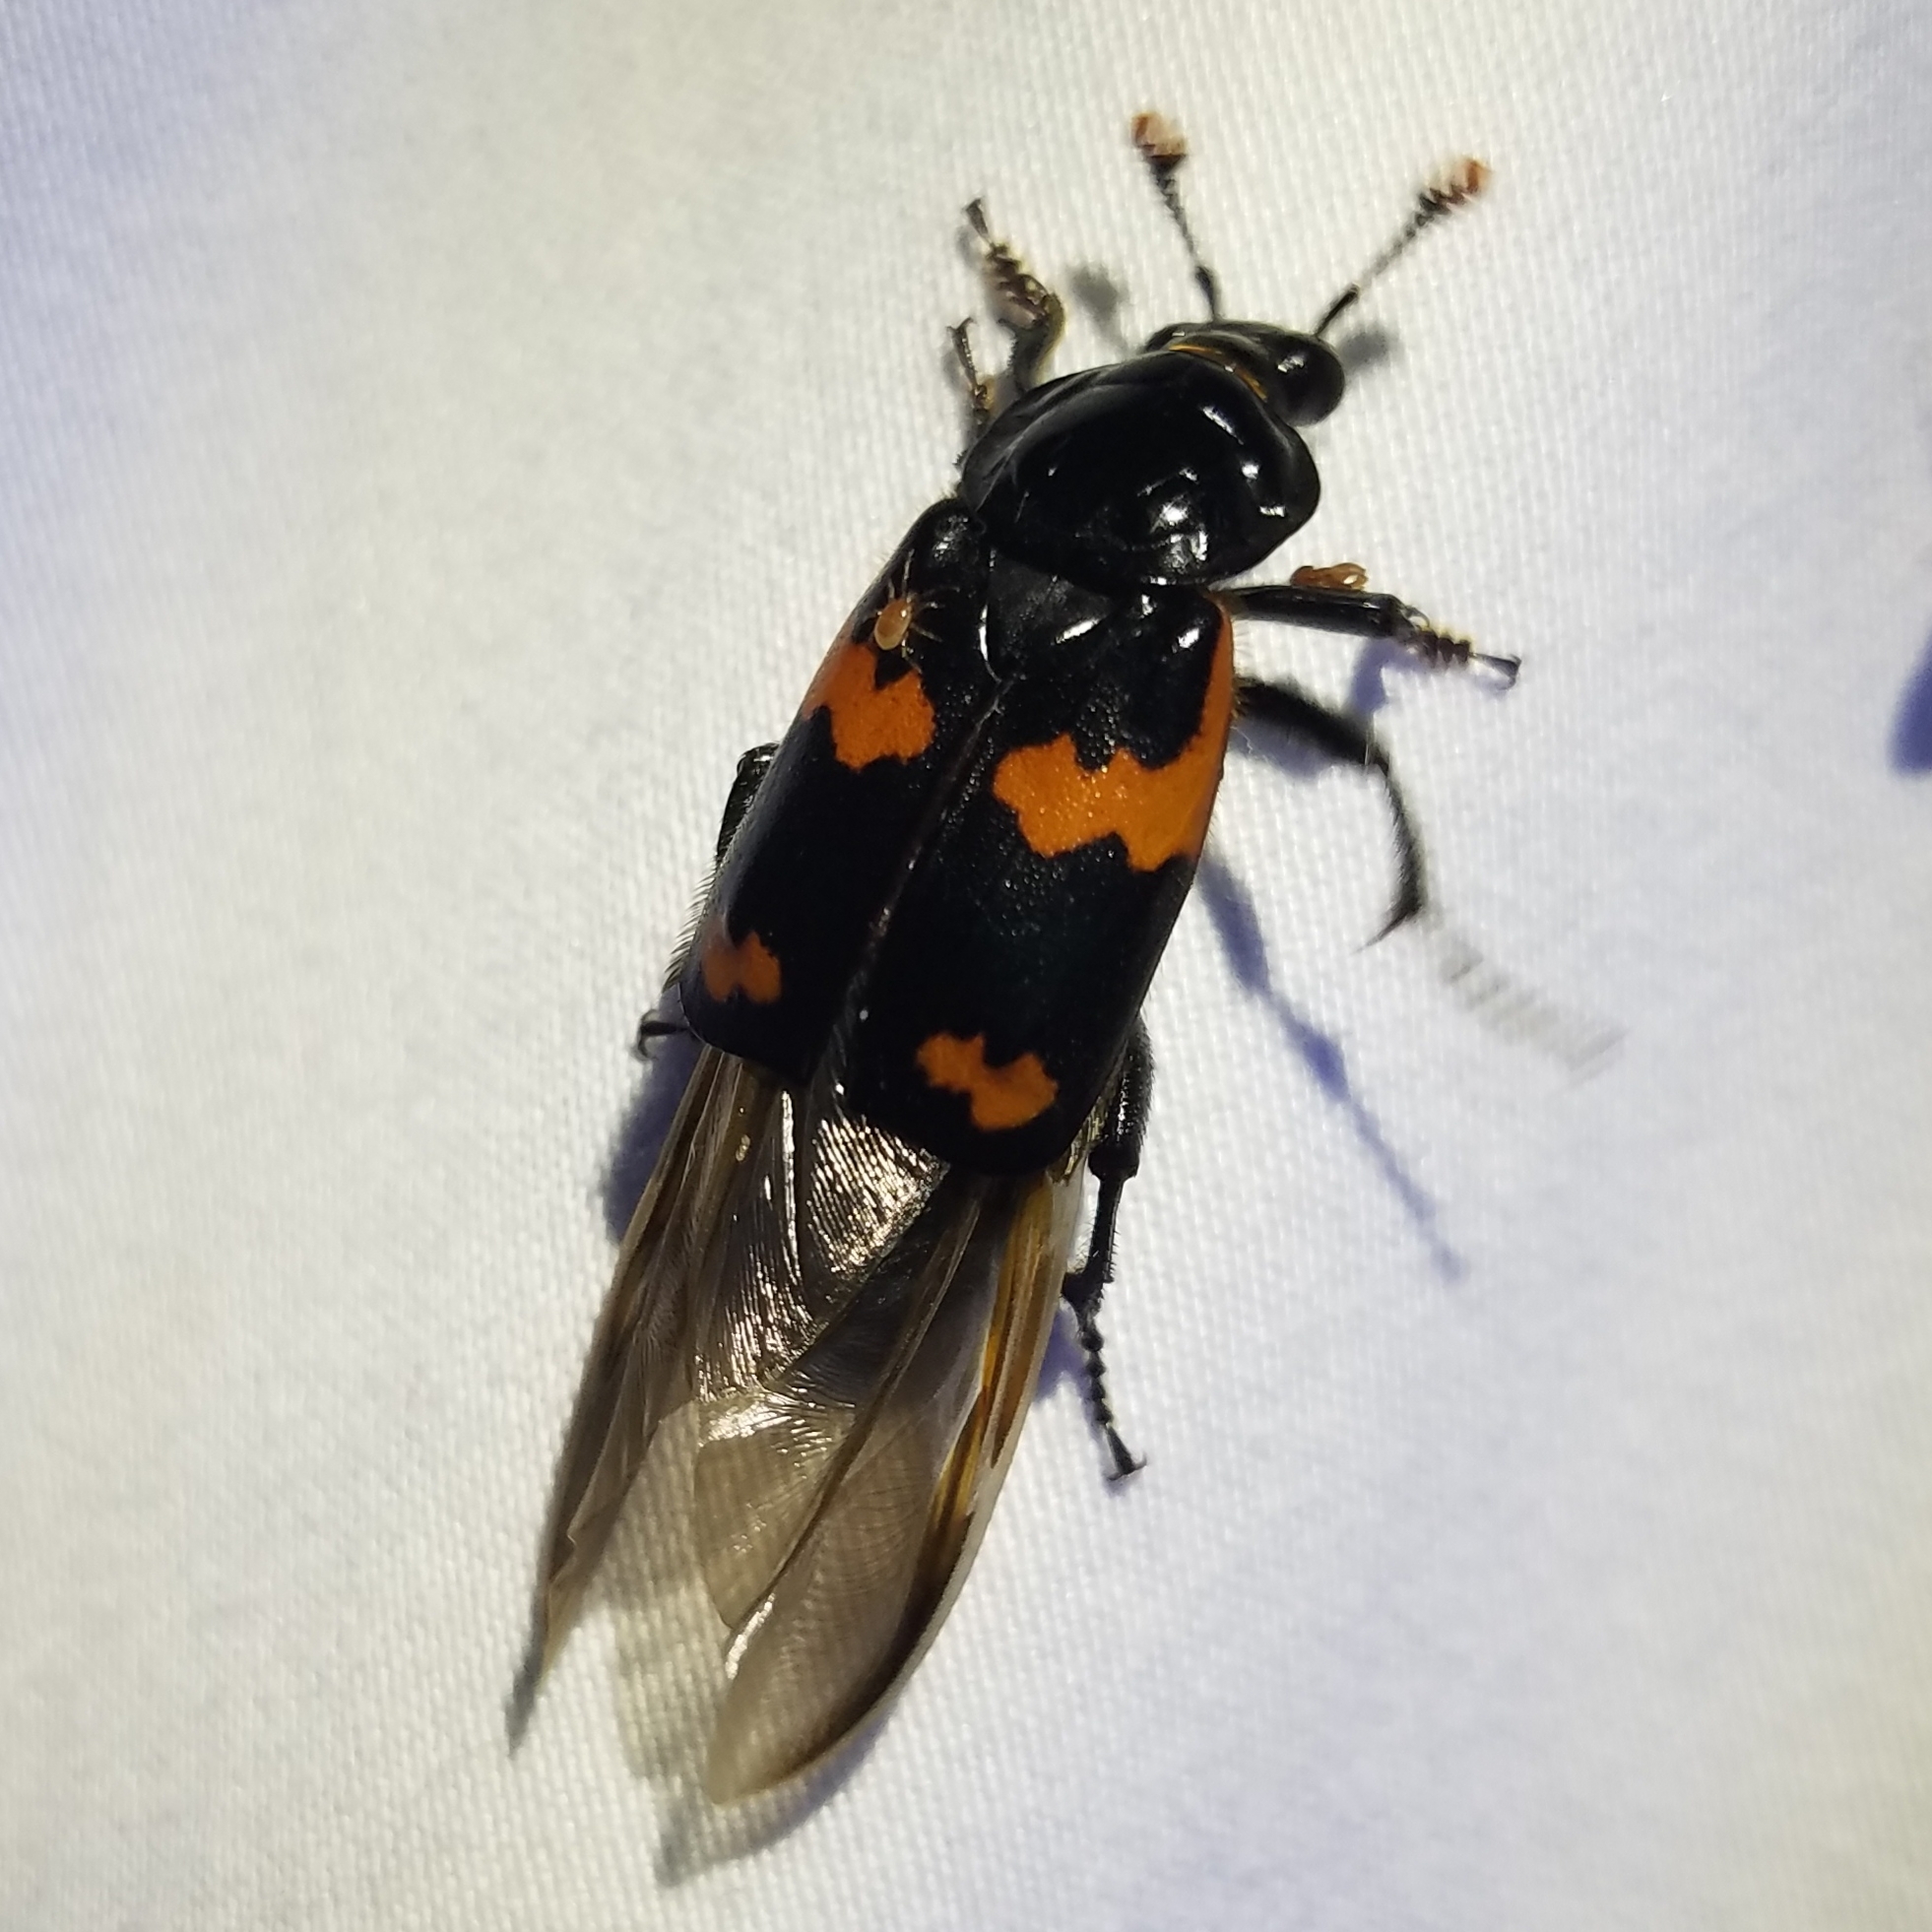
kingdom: Animalia
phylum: Arthropoda
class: Insecta
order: Coleoptera
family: Staphylinidae
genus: Nicrophorus
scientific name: Nicrophorus sayi
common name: Say's burying beetle
